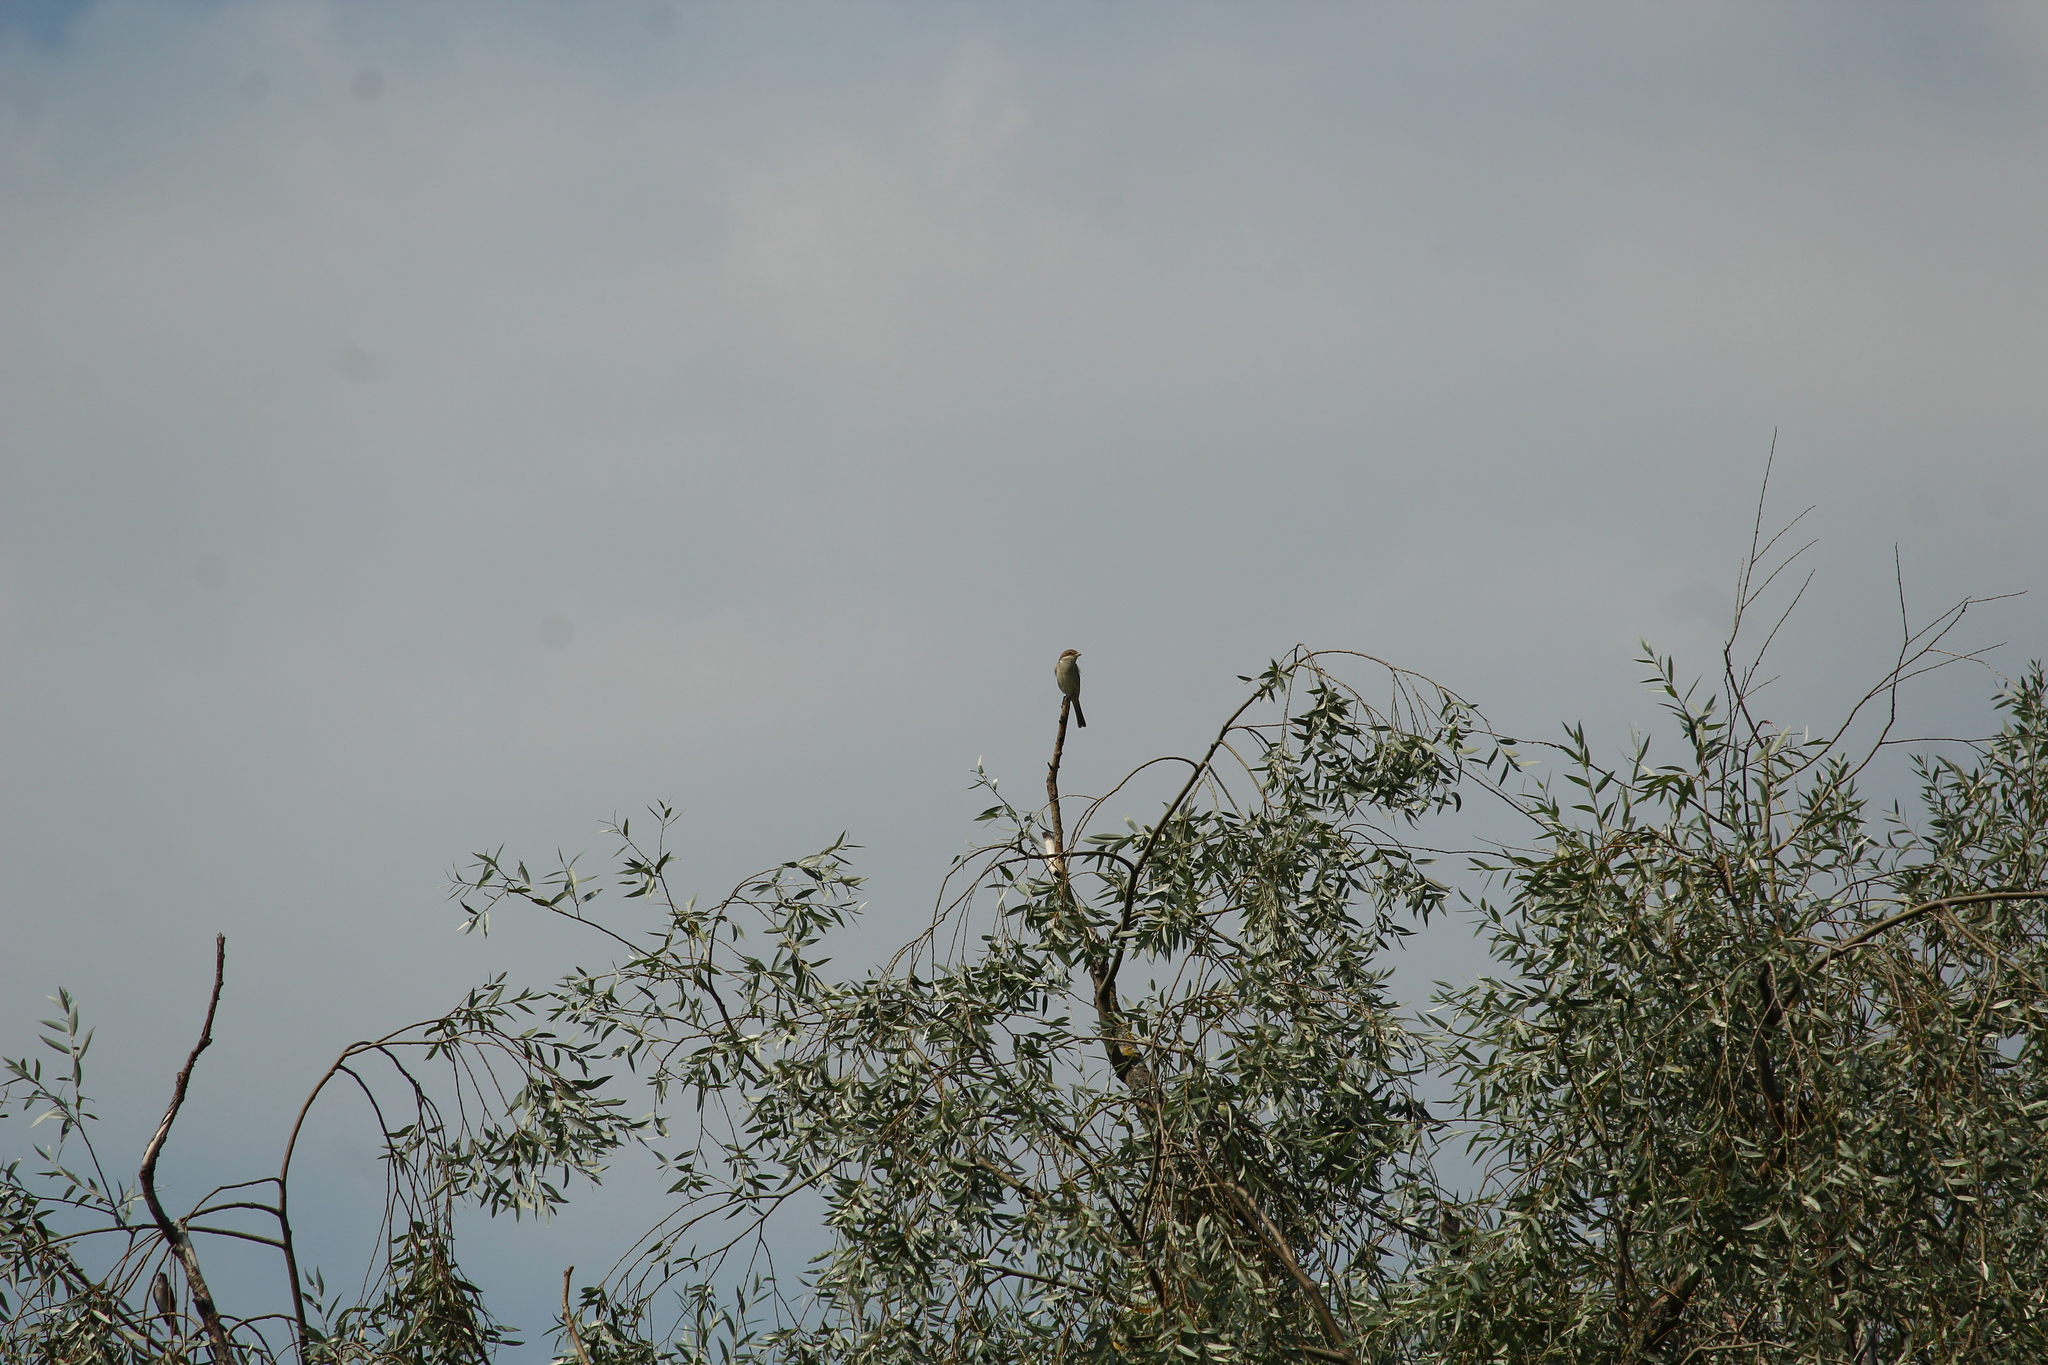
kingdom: Animalia
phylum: Chordata
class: Aves
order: Passeriformes
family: Laniidae
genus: Lanius
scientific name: Lanius collurio
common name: Red-backed shrike
